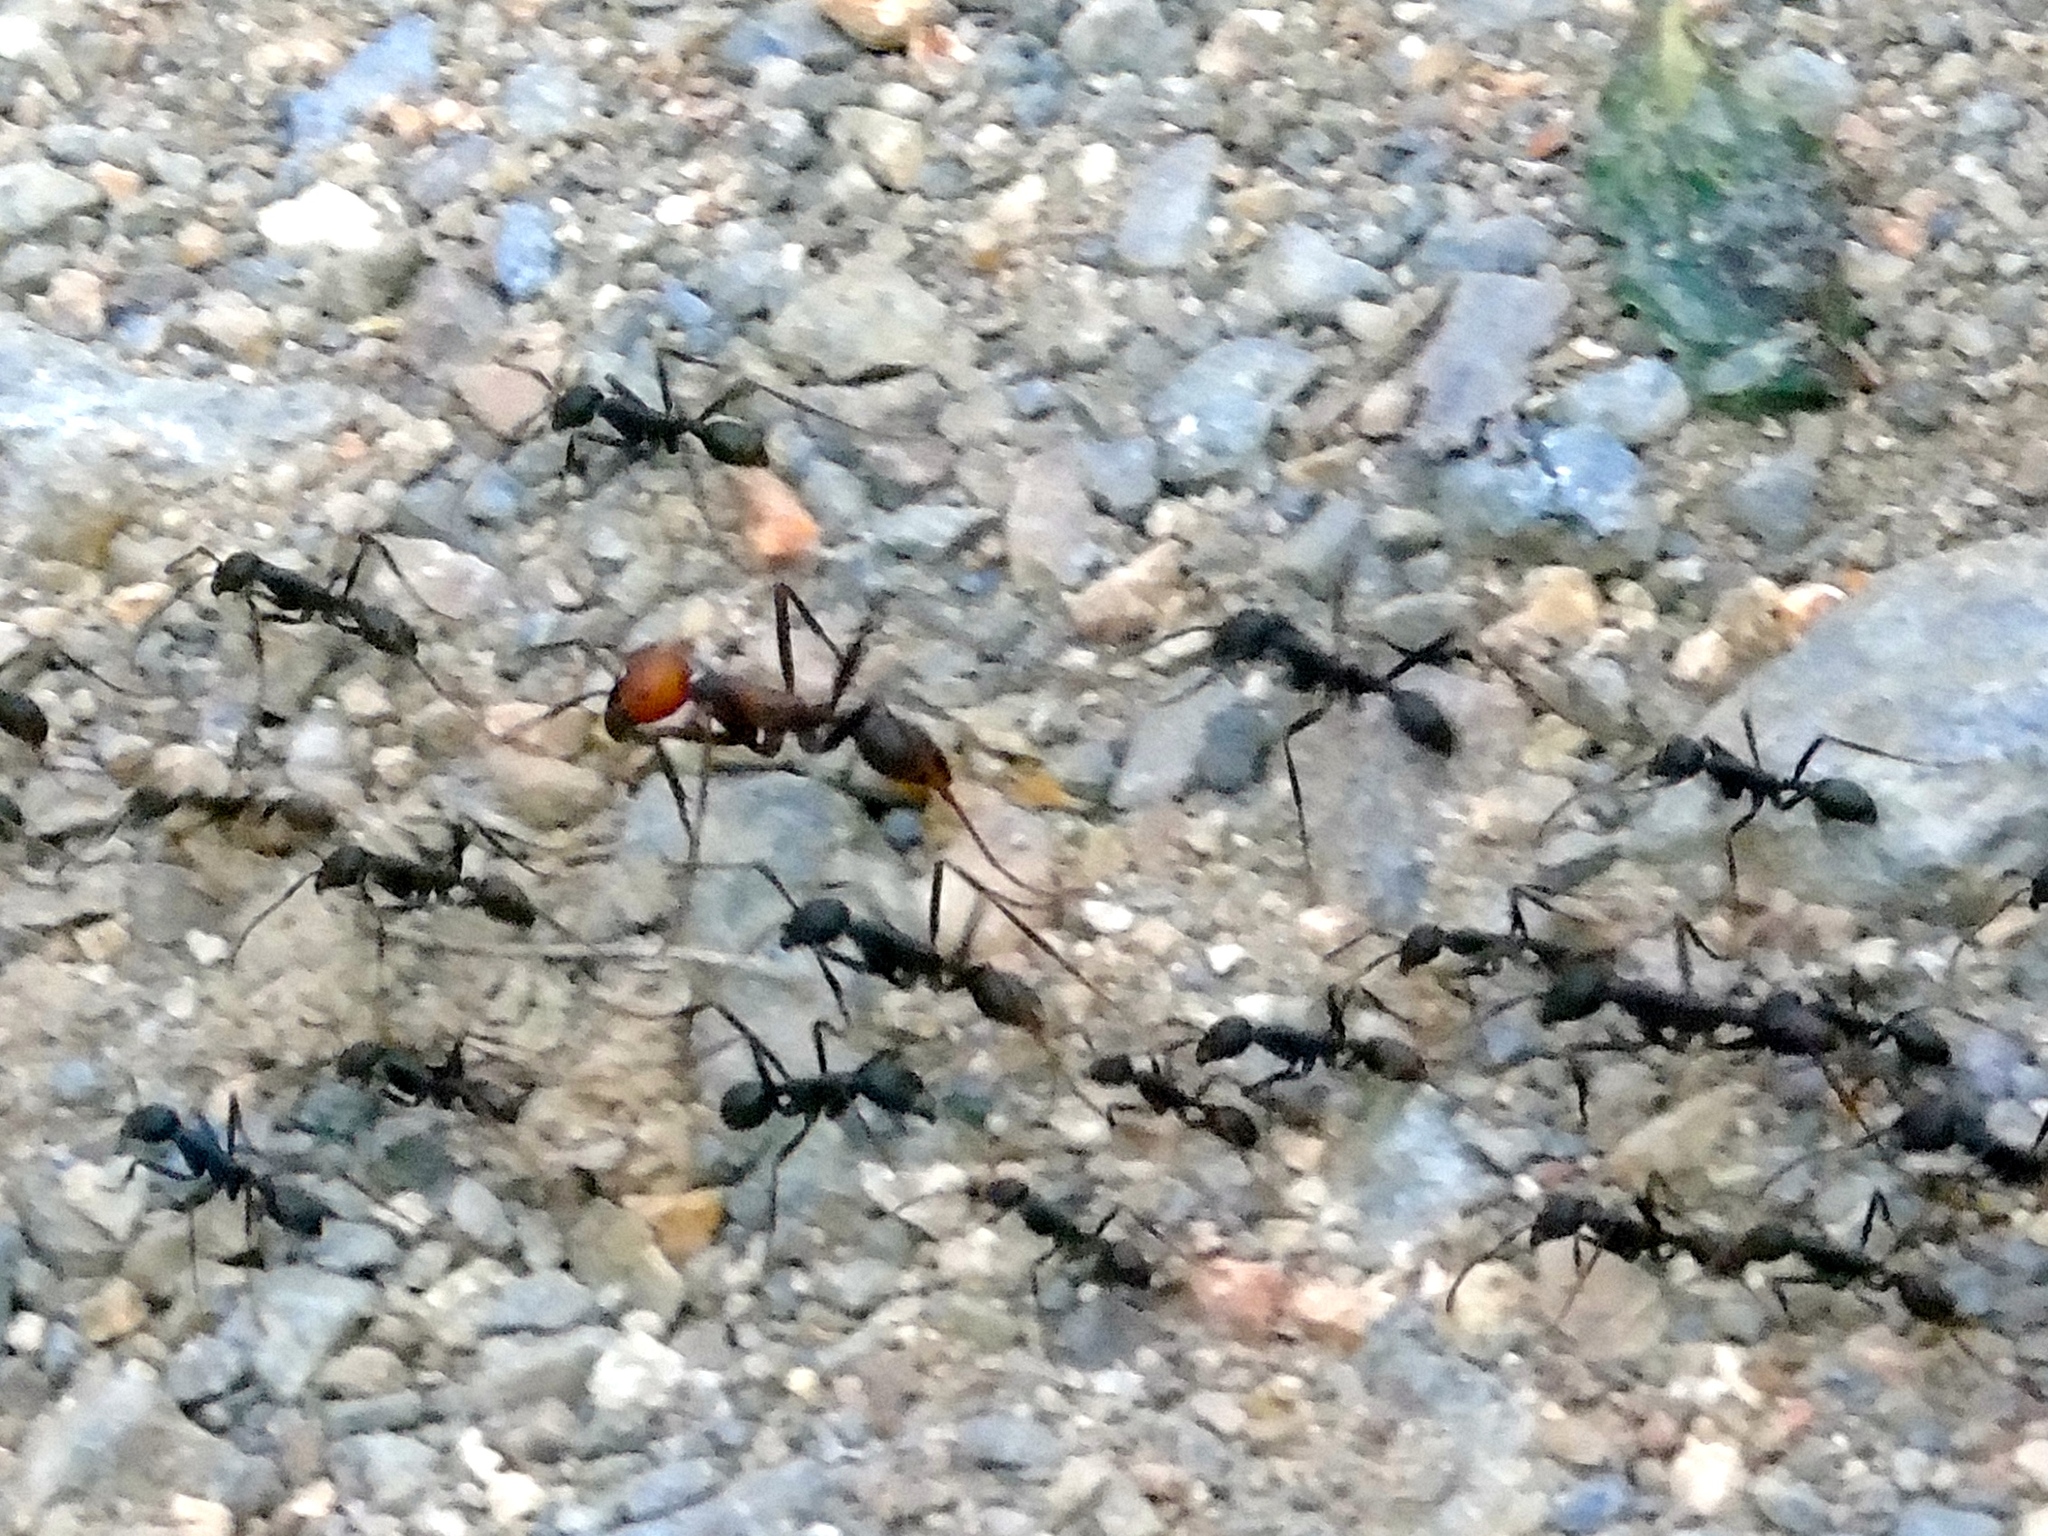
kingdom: Animalia
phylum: Arthropoda
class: Insecta
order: Hymenoptera
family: Formicidae
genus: Eciton
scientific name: Eciton burchellii
